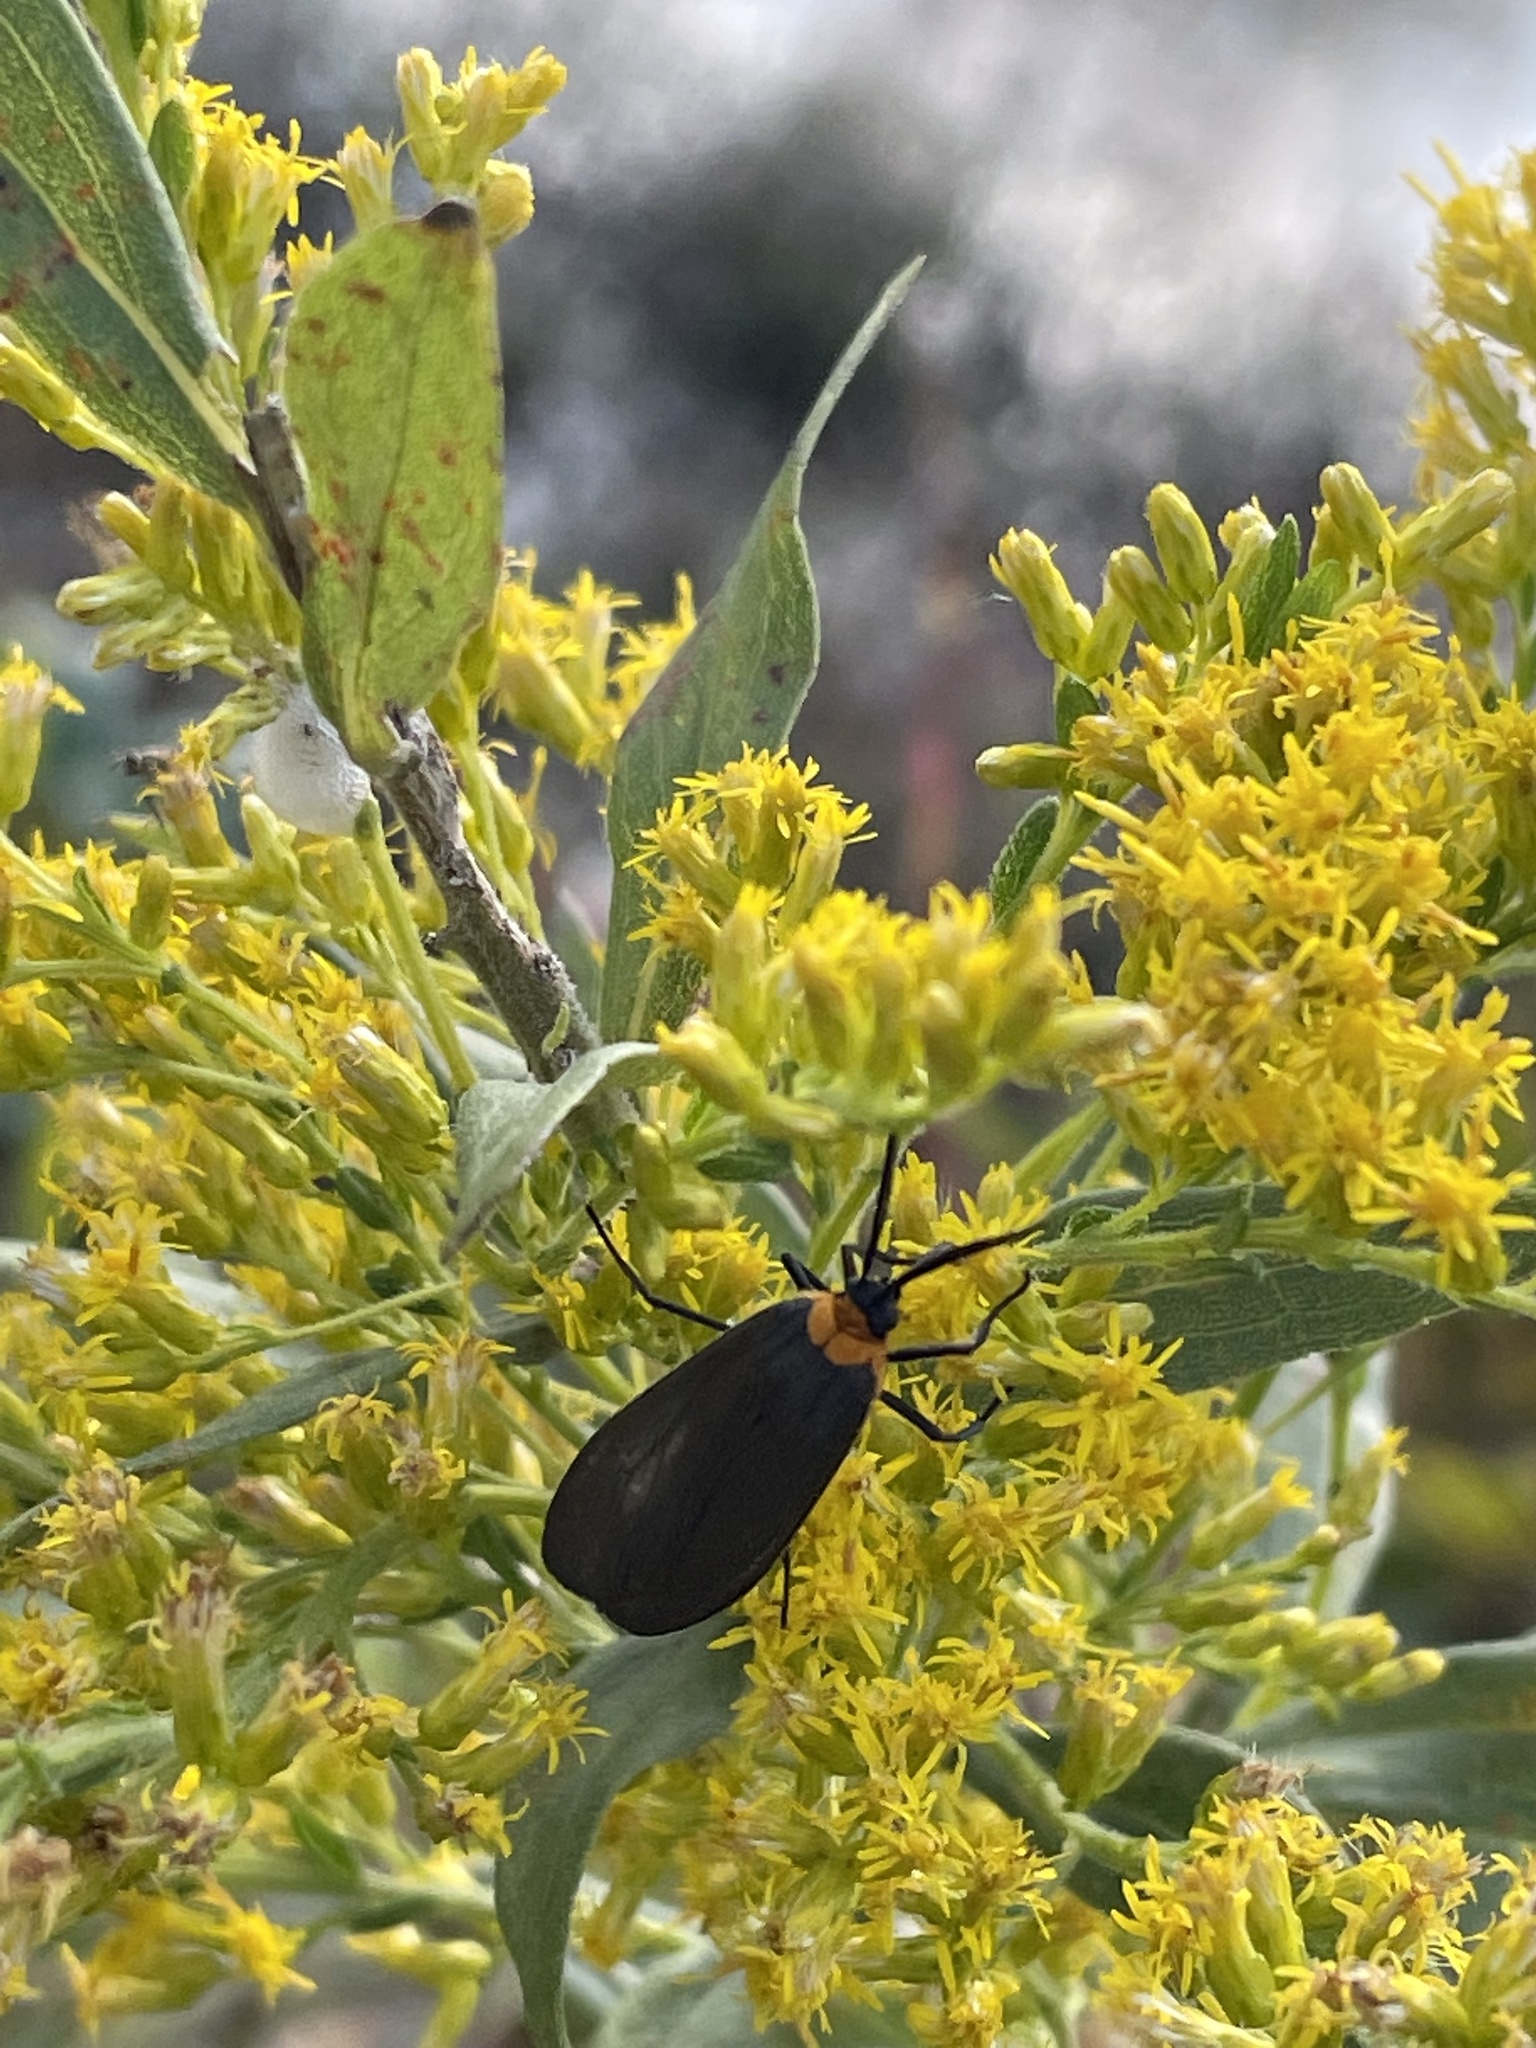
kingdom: Animalia
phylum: Arthropoda
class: Insecta
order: Lepidoptera
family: Erebidae
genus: Cisseps
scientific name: Cisseps fulvicollis
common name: Yellow-collared scape moth
